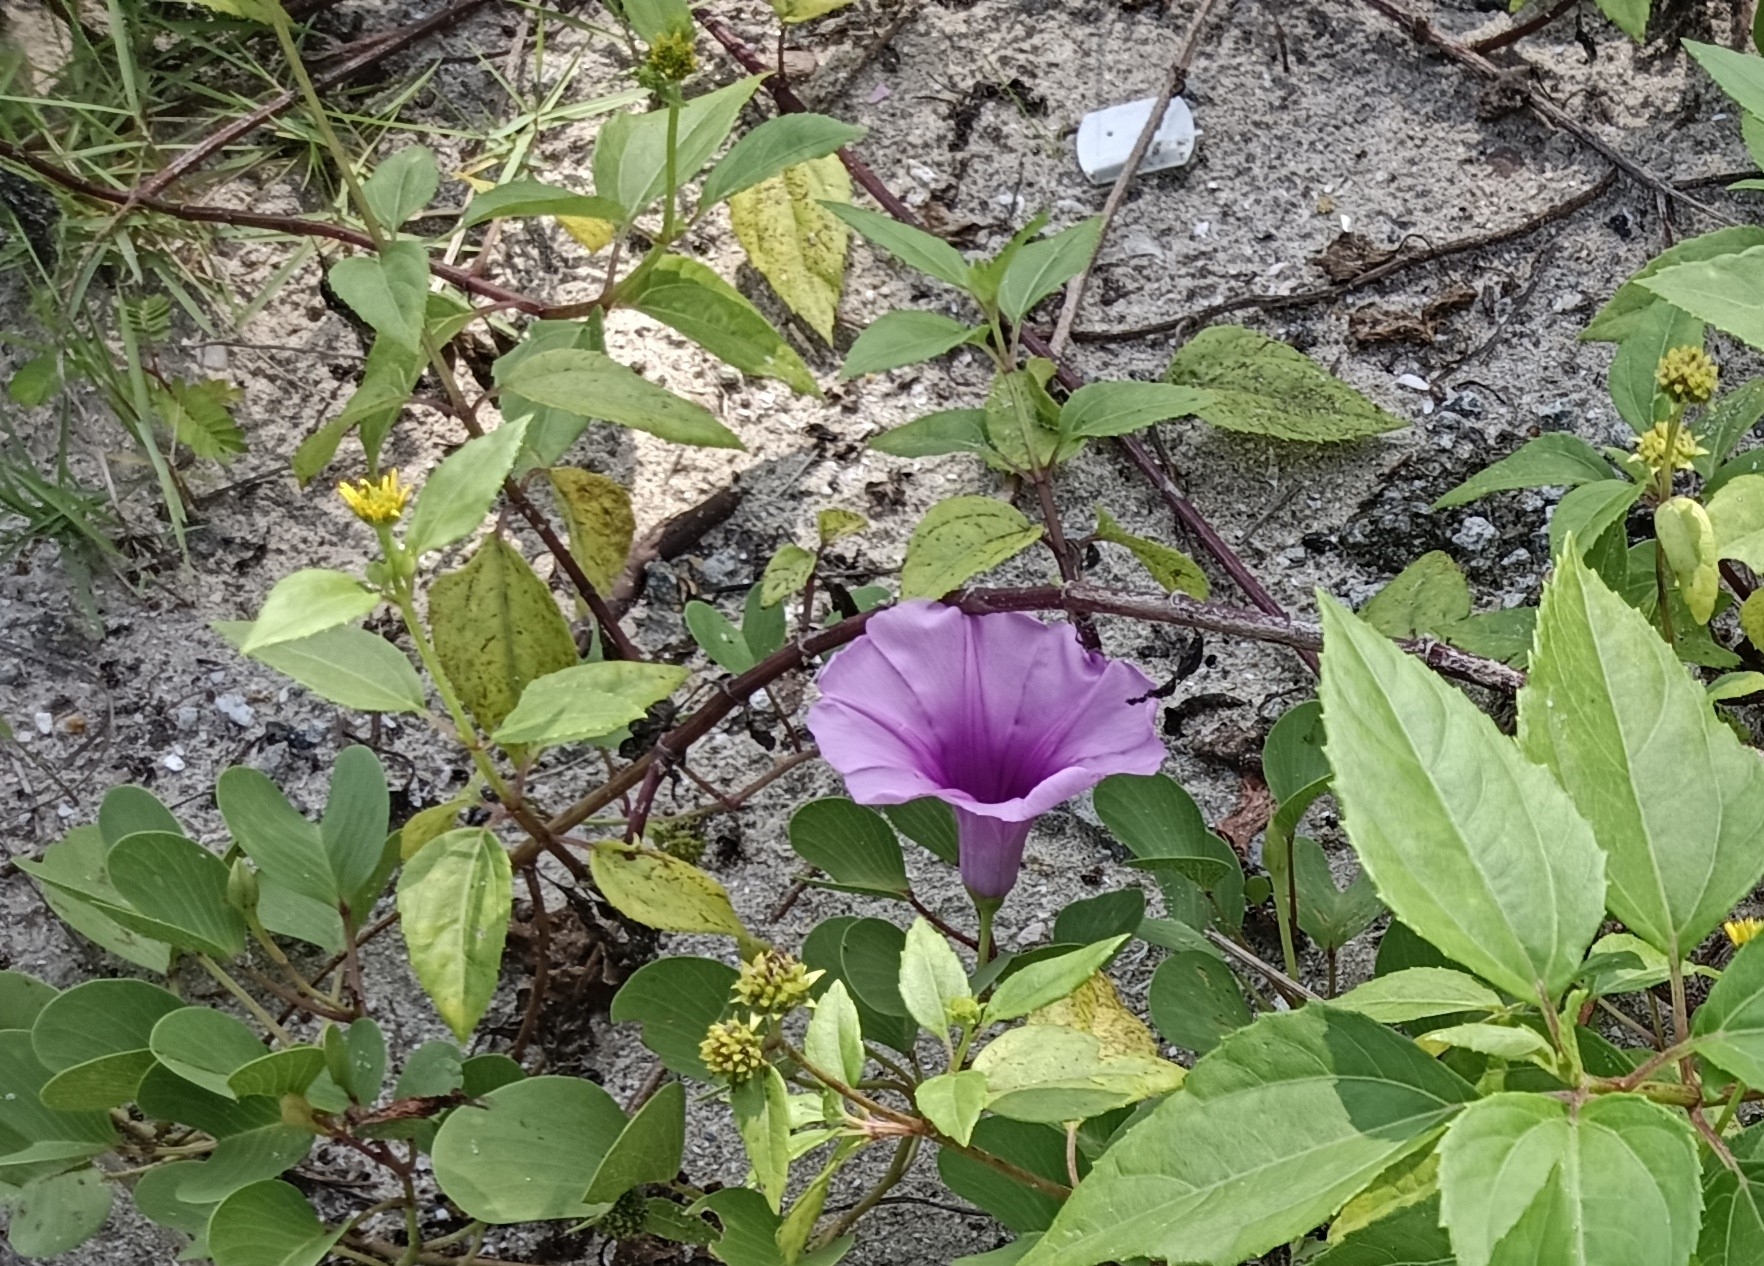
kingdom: Plantae
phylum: Tracheophyta
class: Magnoliopsida
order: Solanales
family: Convolvulaceae
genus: Ipomoea
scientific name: Ipomoea pes-caprae
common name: Beach morning glory
